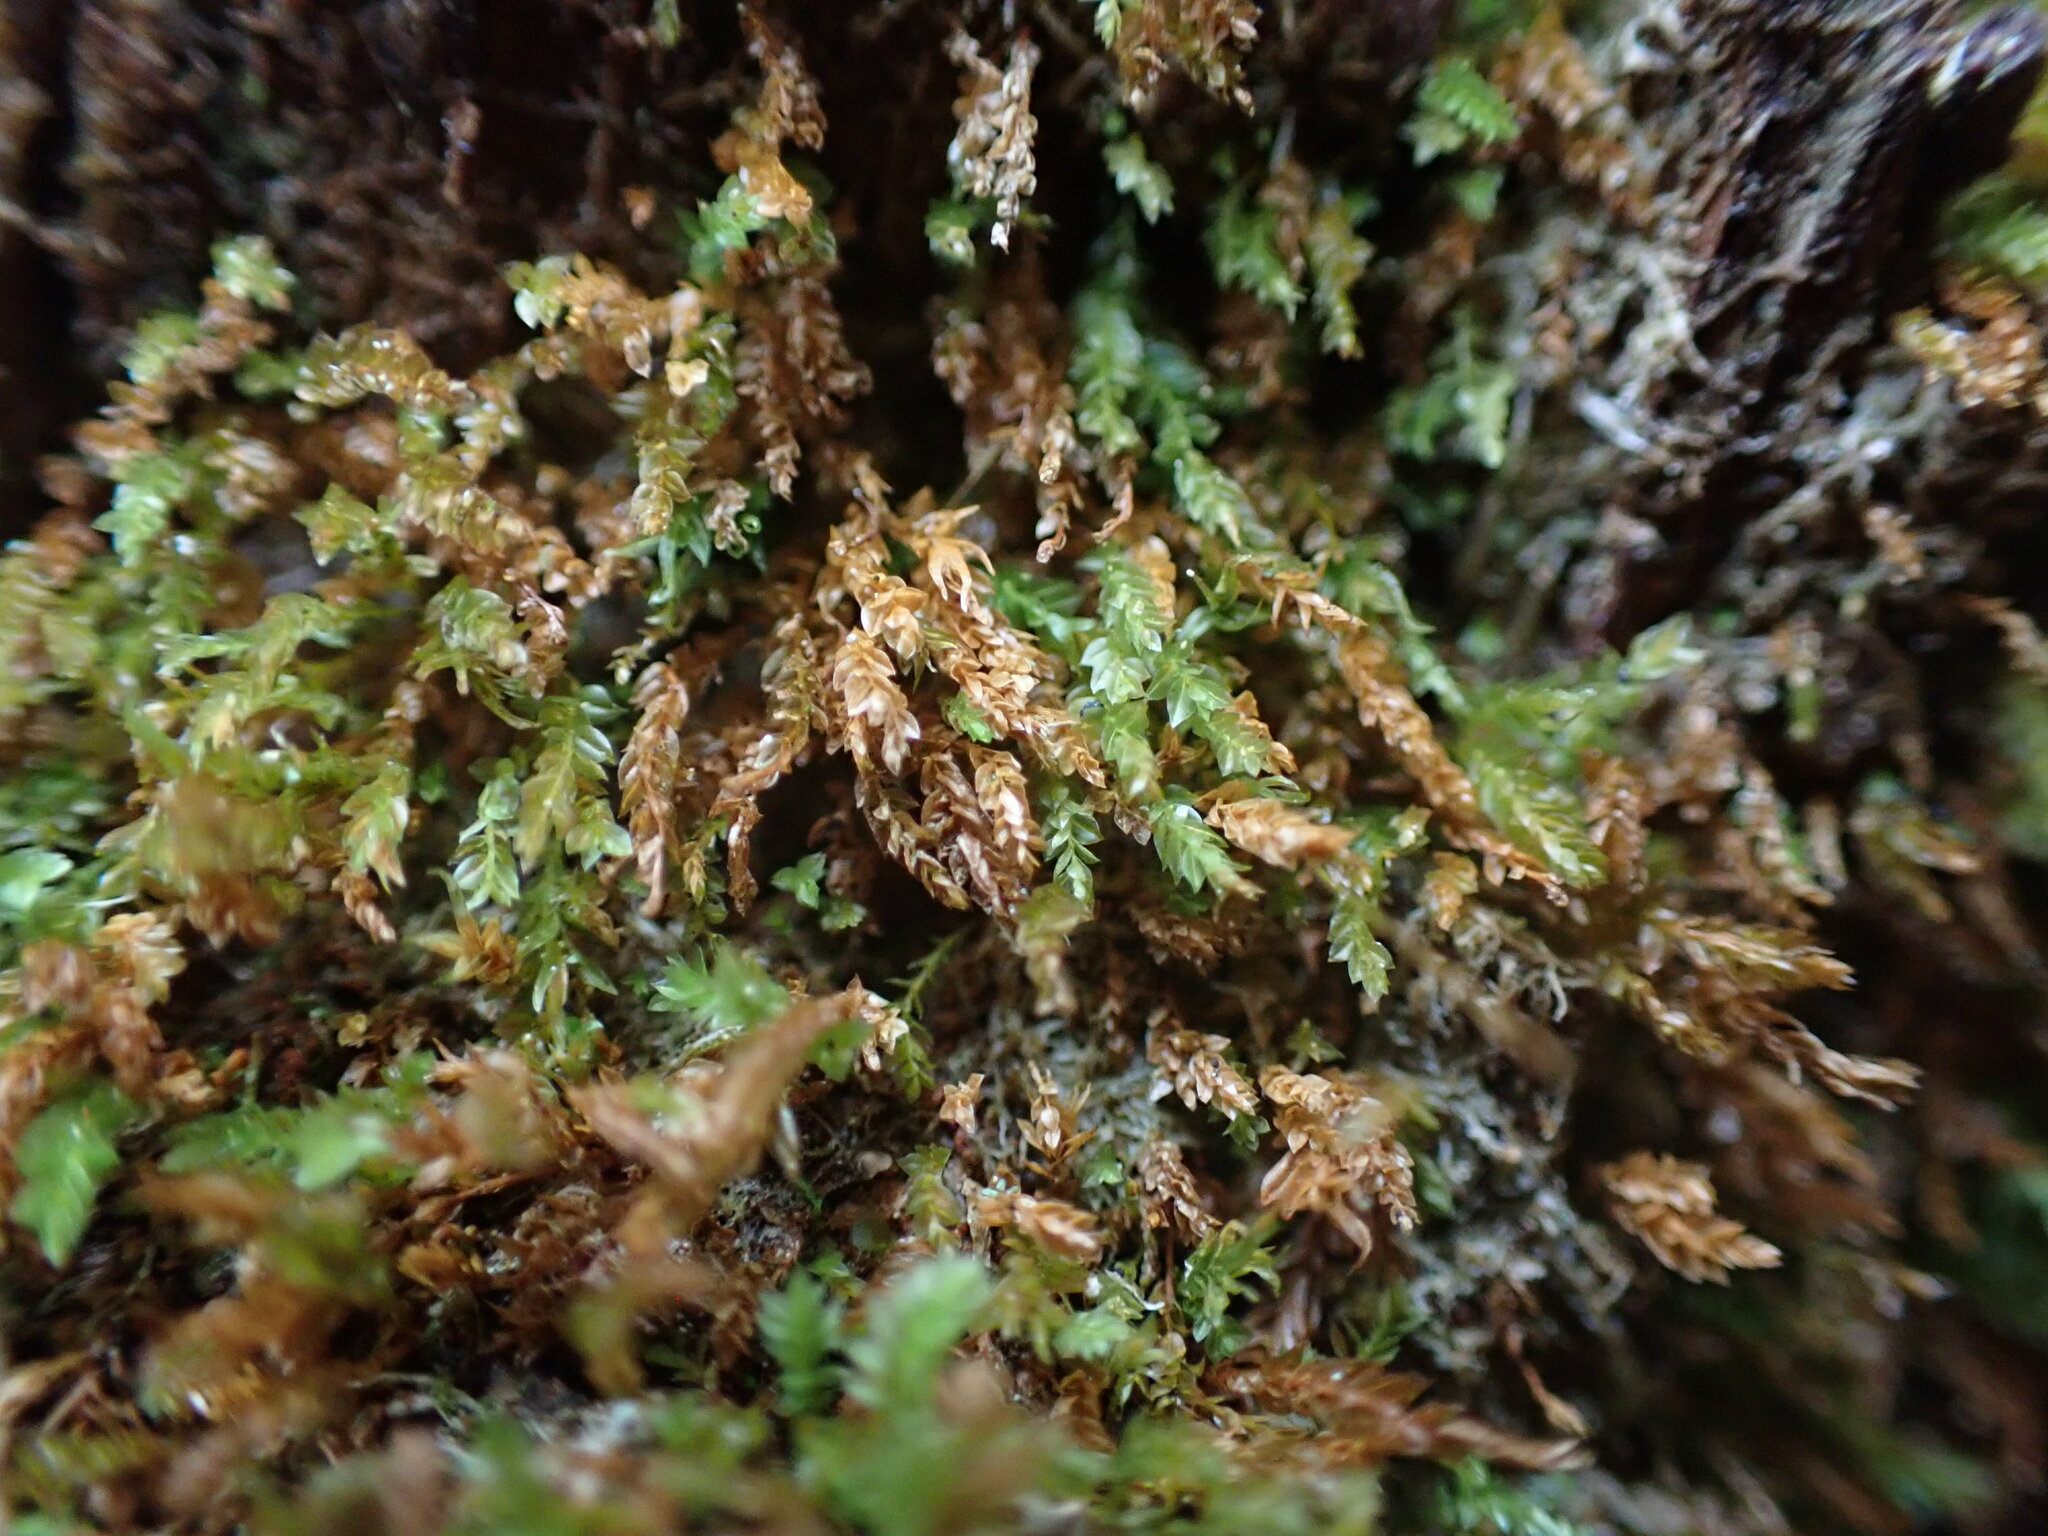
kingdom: Plantae
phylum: Bryophyta
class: Polytrichopsida
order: Tetraphidales
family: Tetraphidaceae
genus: Tetraphis
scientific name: Tetraphis pellucida
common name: Common four-toothed moss
